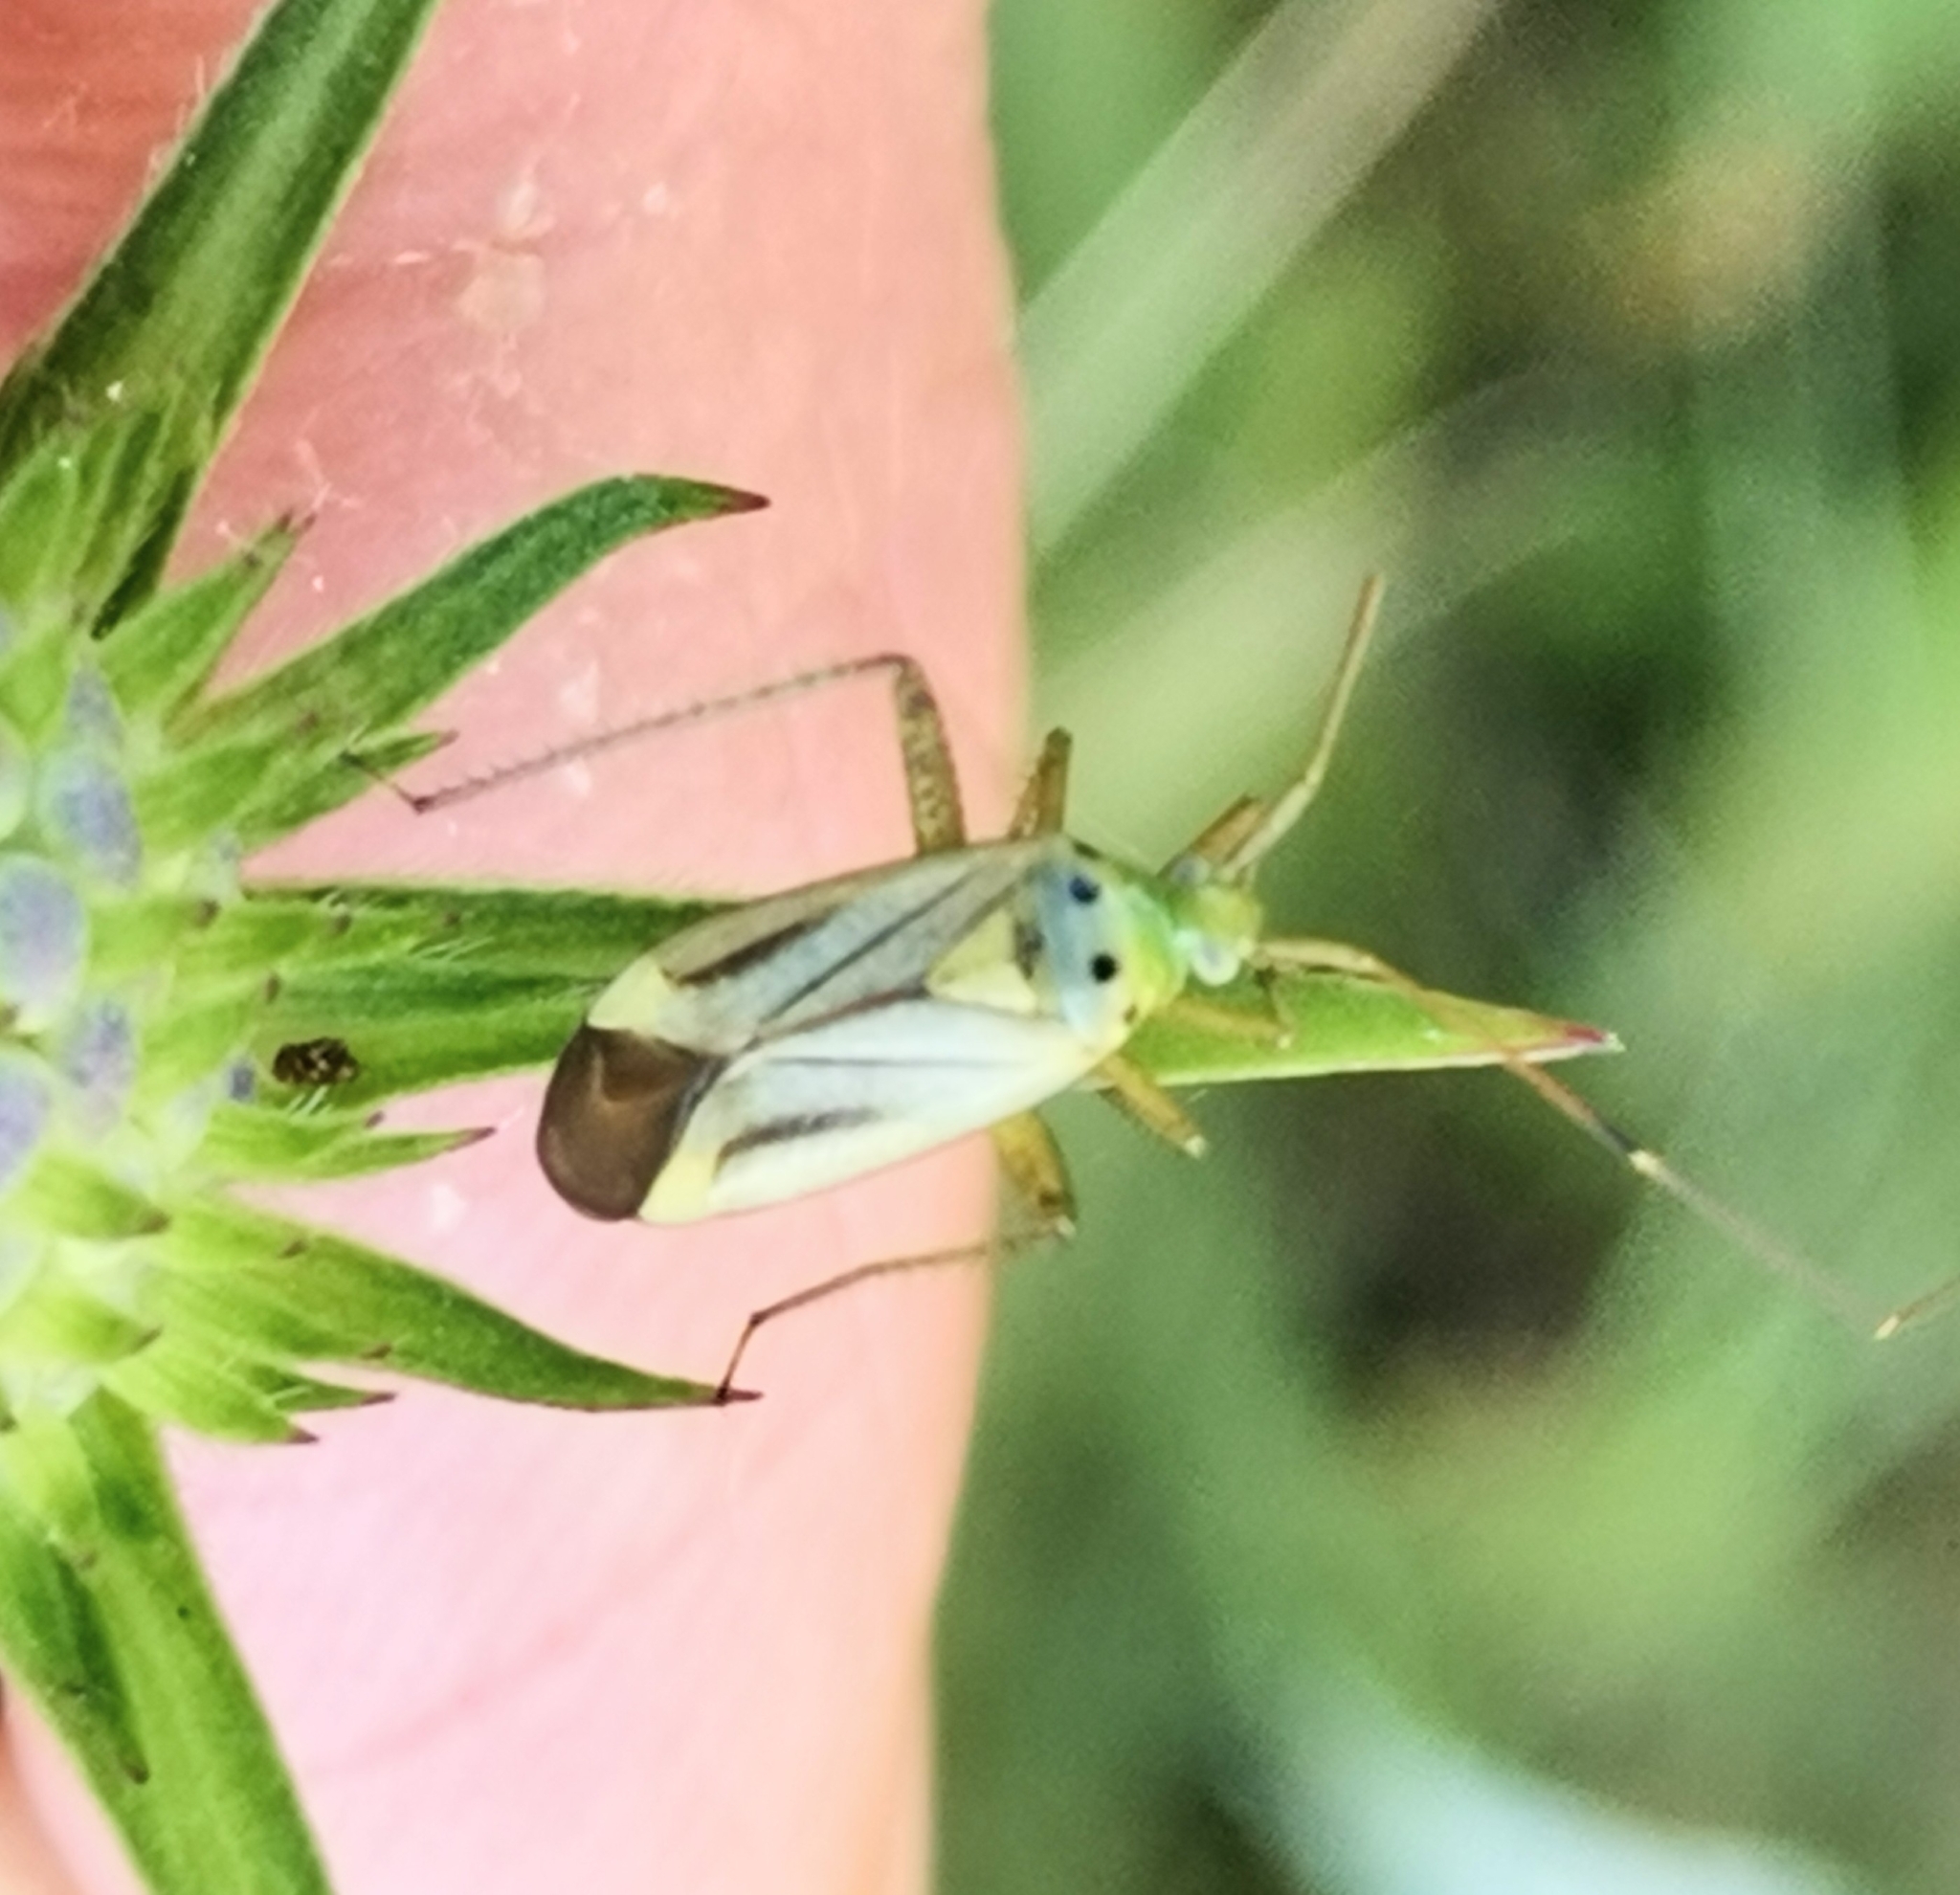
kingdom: Animalia
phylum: Arthropoda
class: Insecta
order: Hemiptera
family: Miridae
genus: Adelphocoris
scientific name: Adelphocoris quadripunctatus
